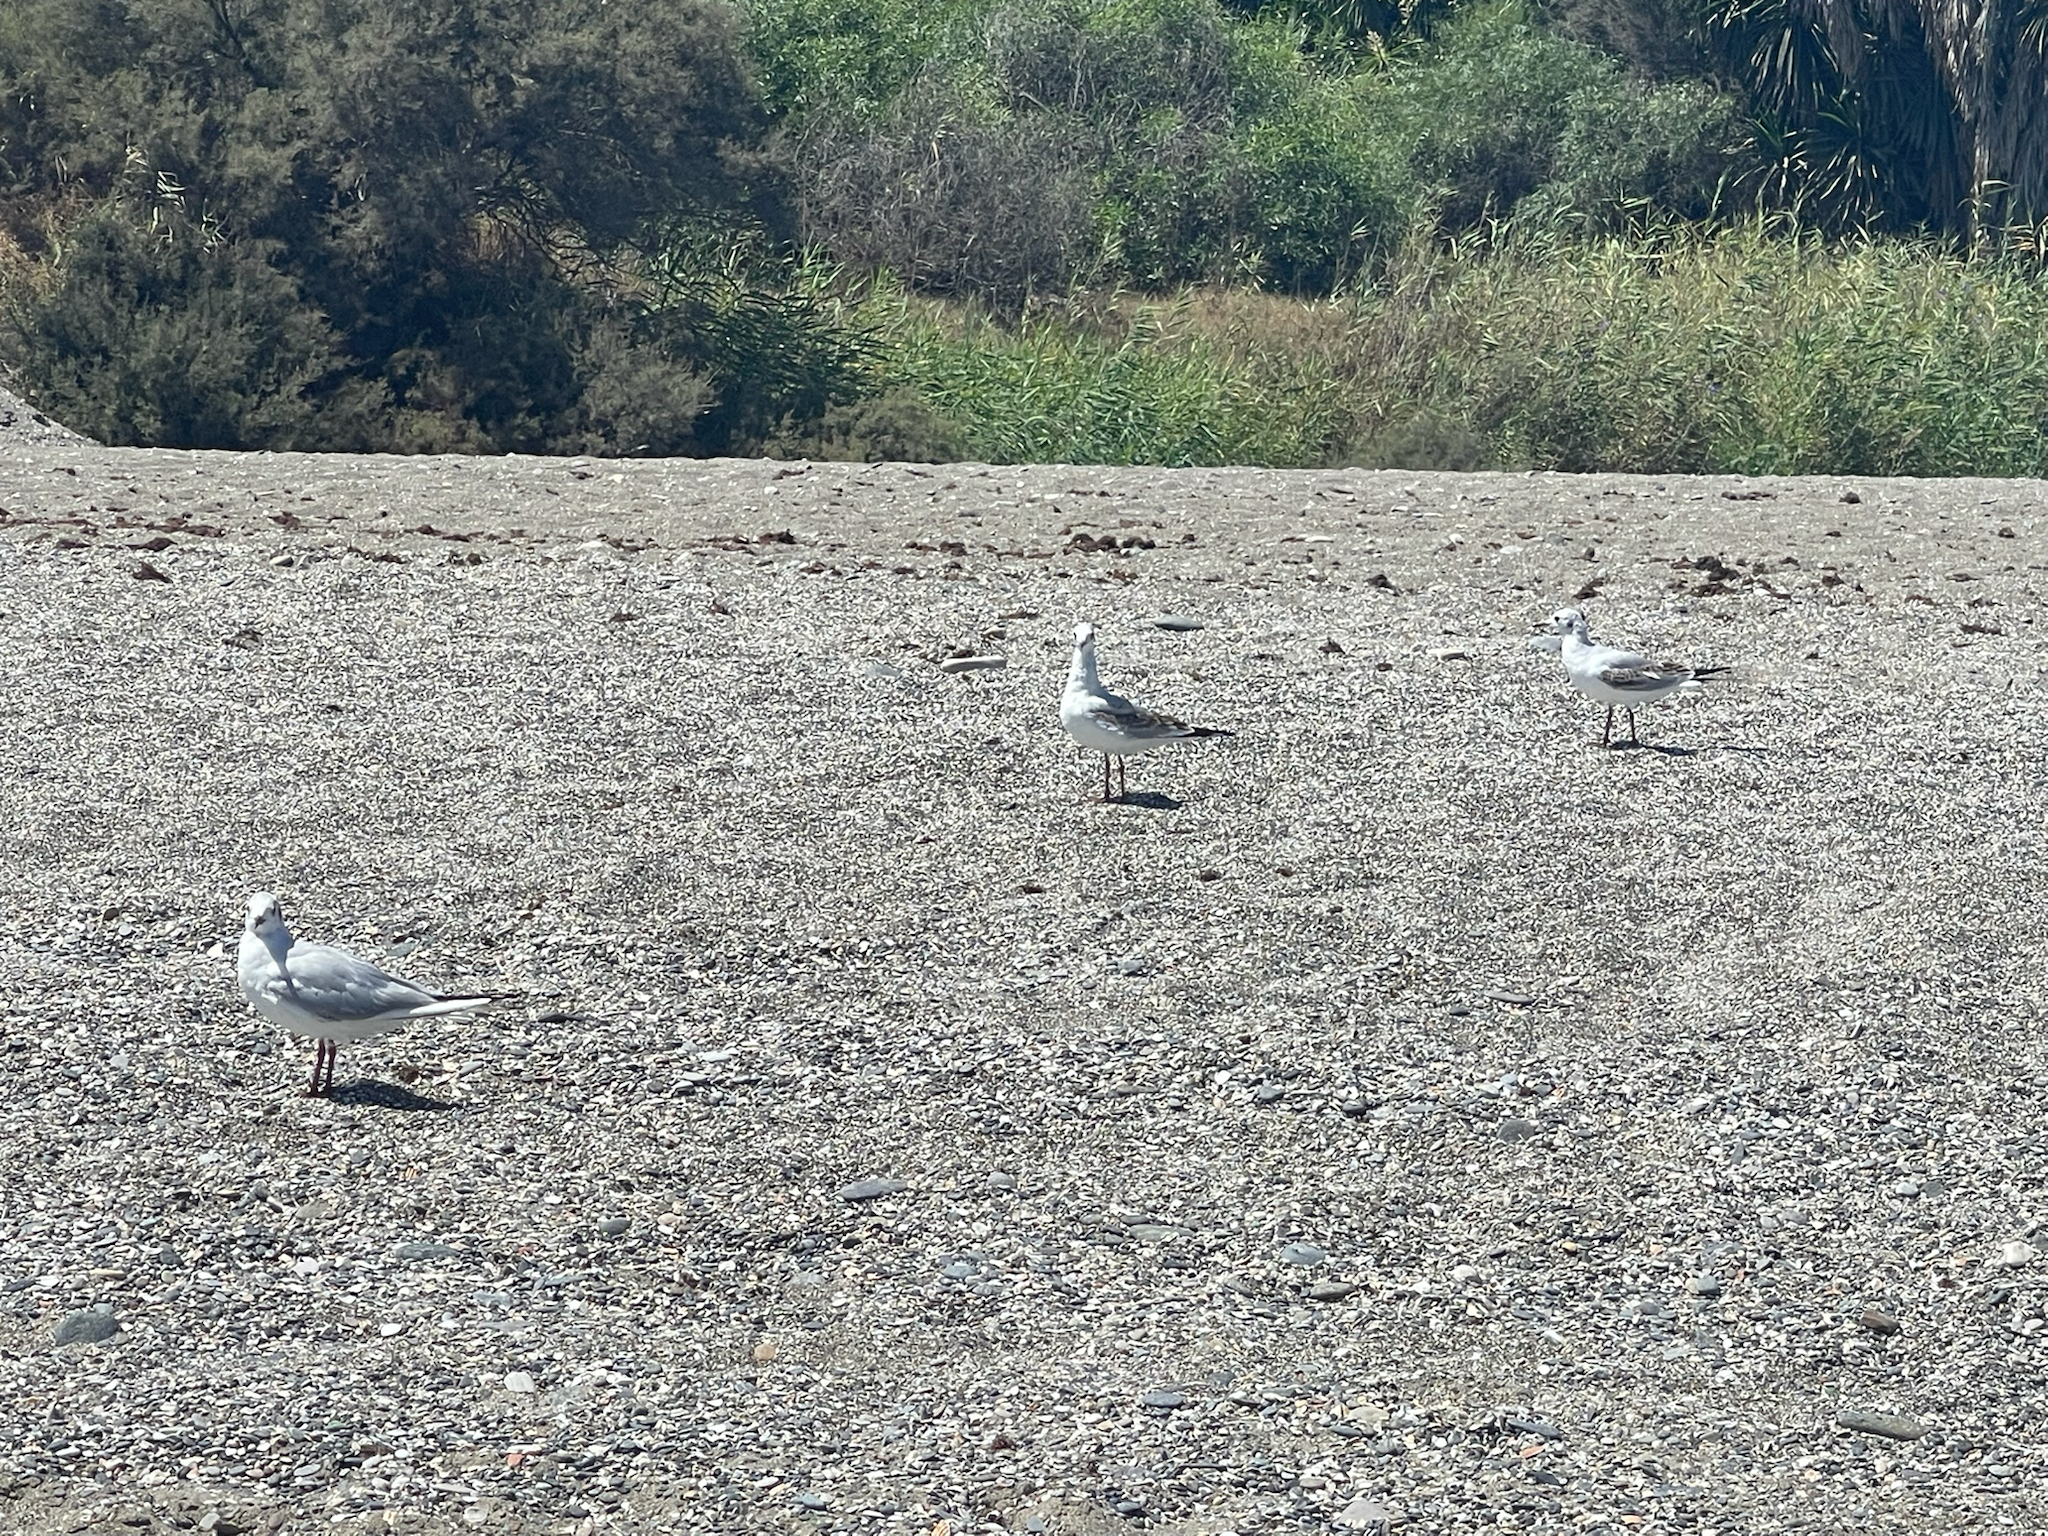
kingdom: Animalia
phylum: Chordata
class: Aves
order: Charadriiformes
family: Laridae
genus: Chroicocephalus
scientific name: Chroicocephalus ridibundus
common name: Black-headed gull
